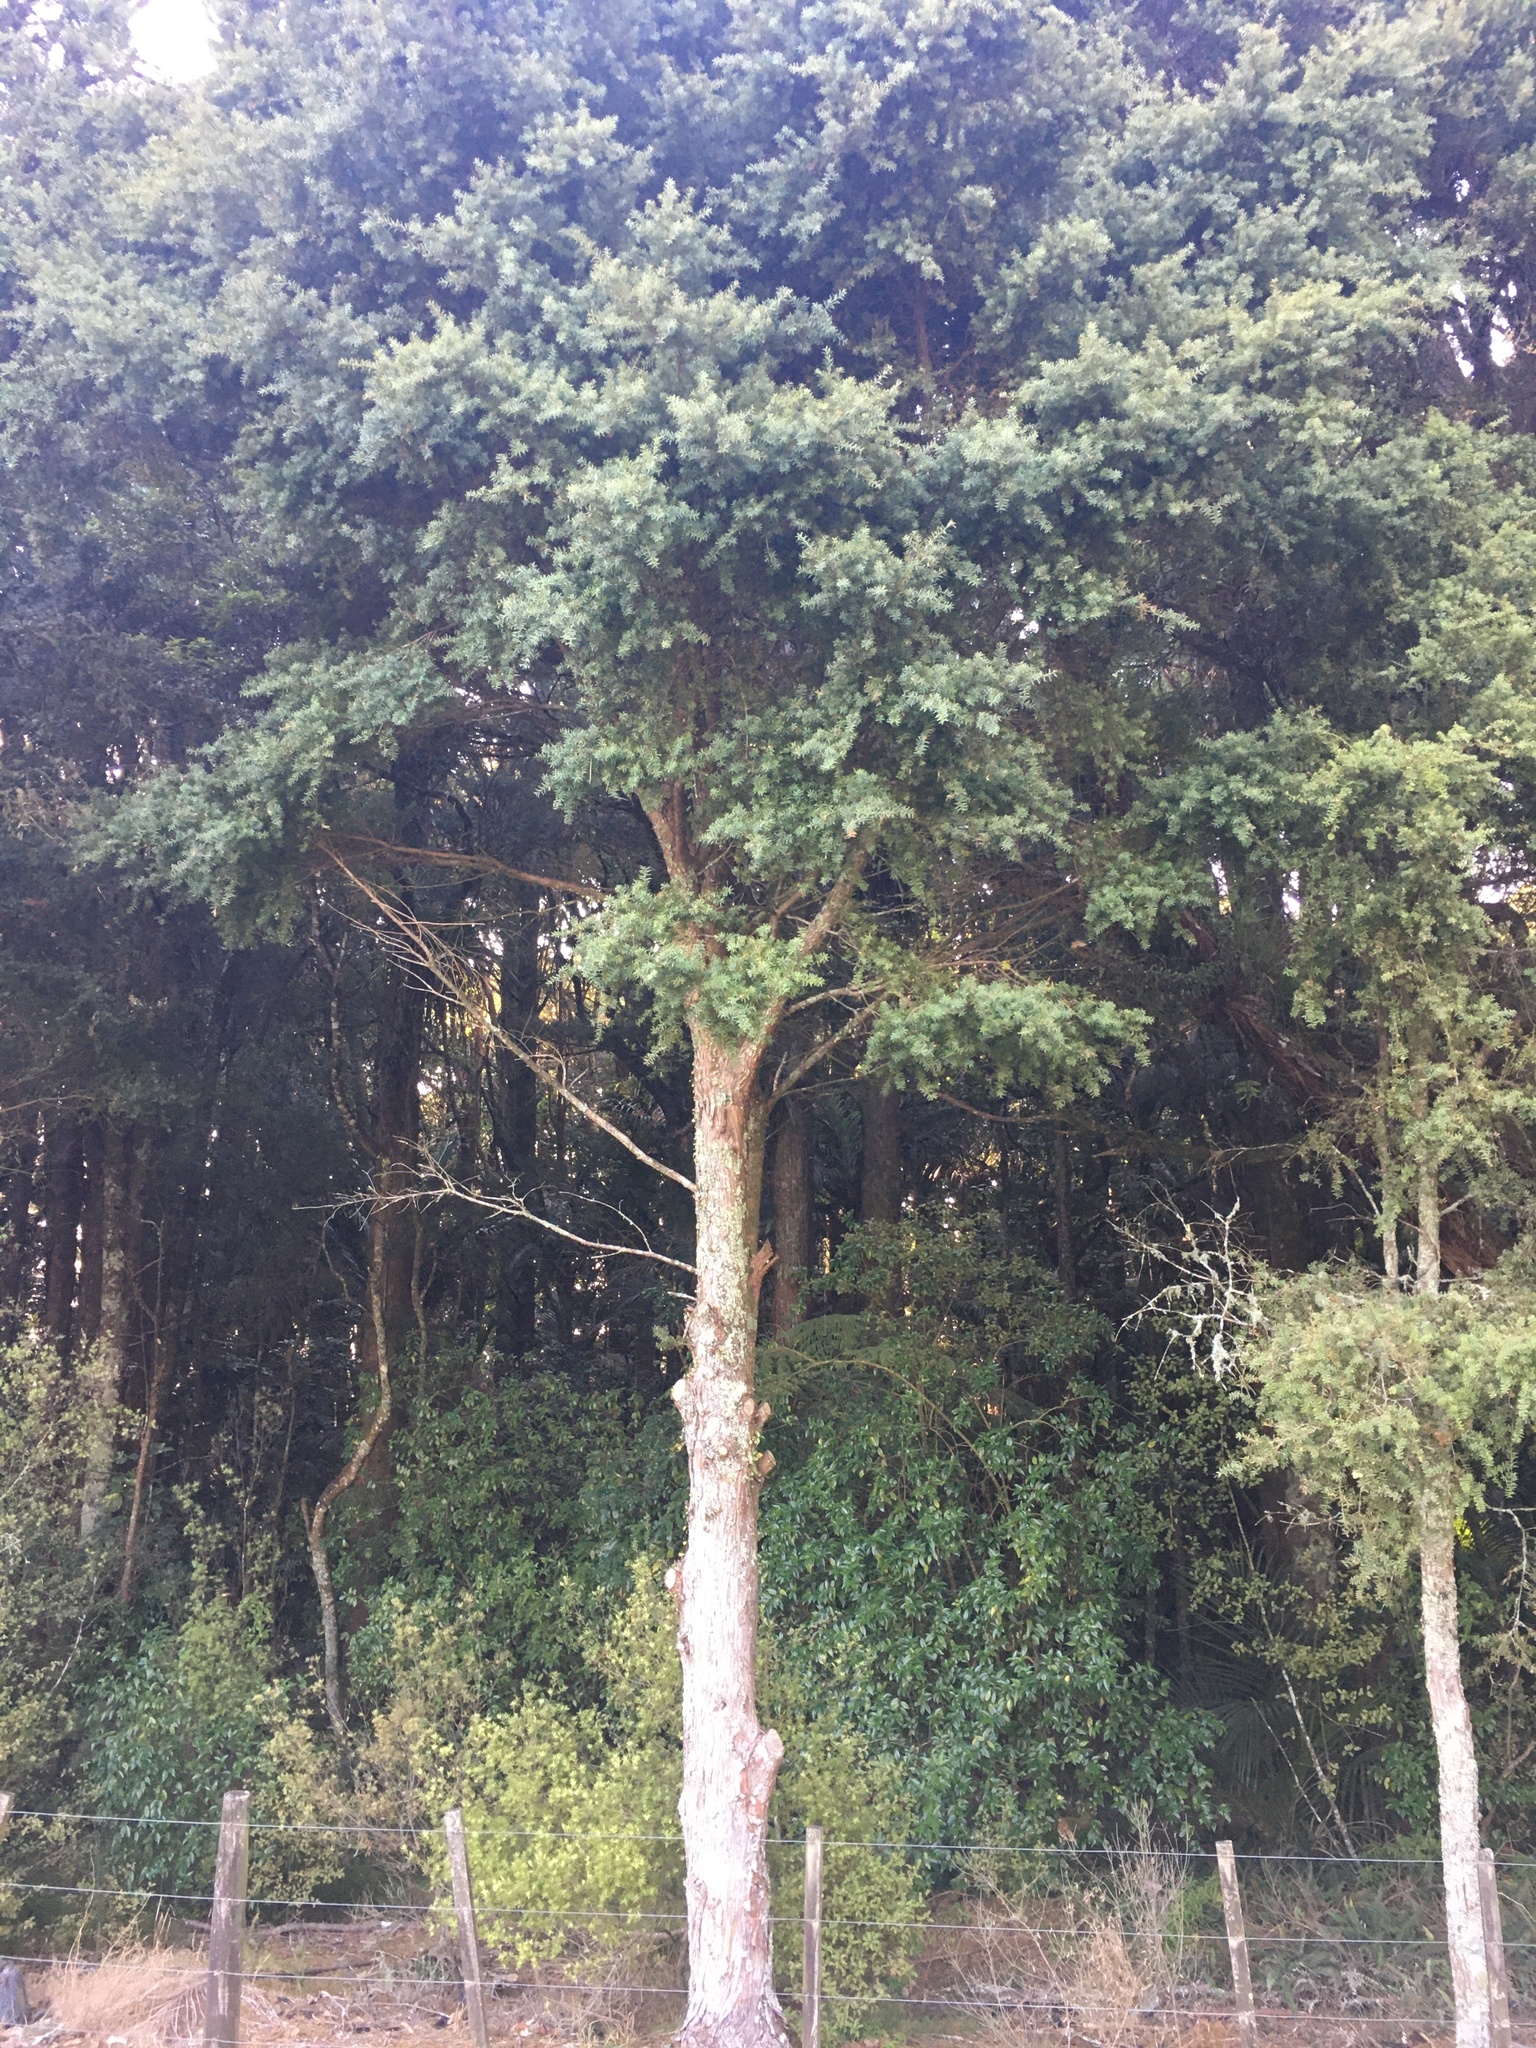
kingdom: Plantae
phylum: Tracheophyta
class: Pinopsida
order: Pinales
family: Podocarpaceae
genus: Podocarpus
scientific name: Podocarpus totara
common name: Totara
